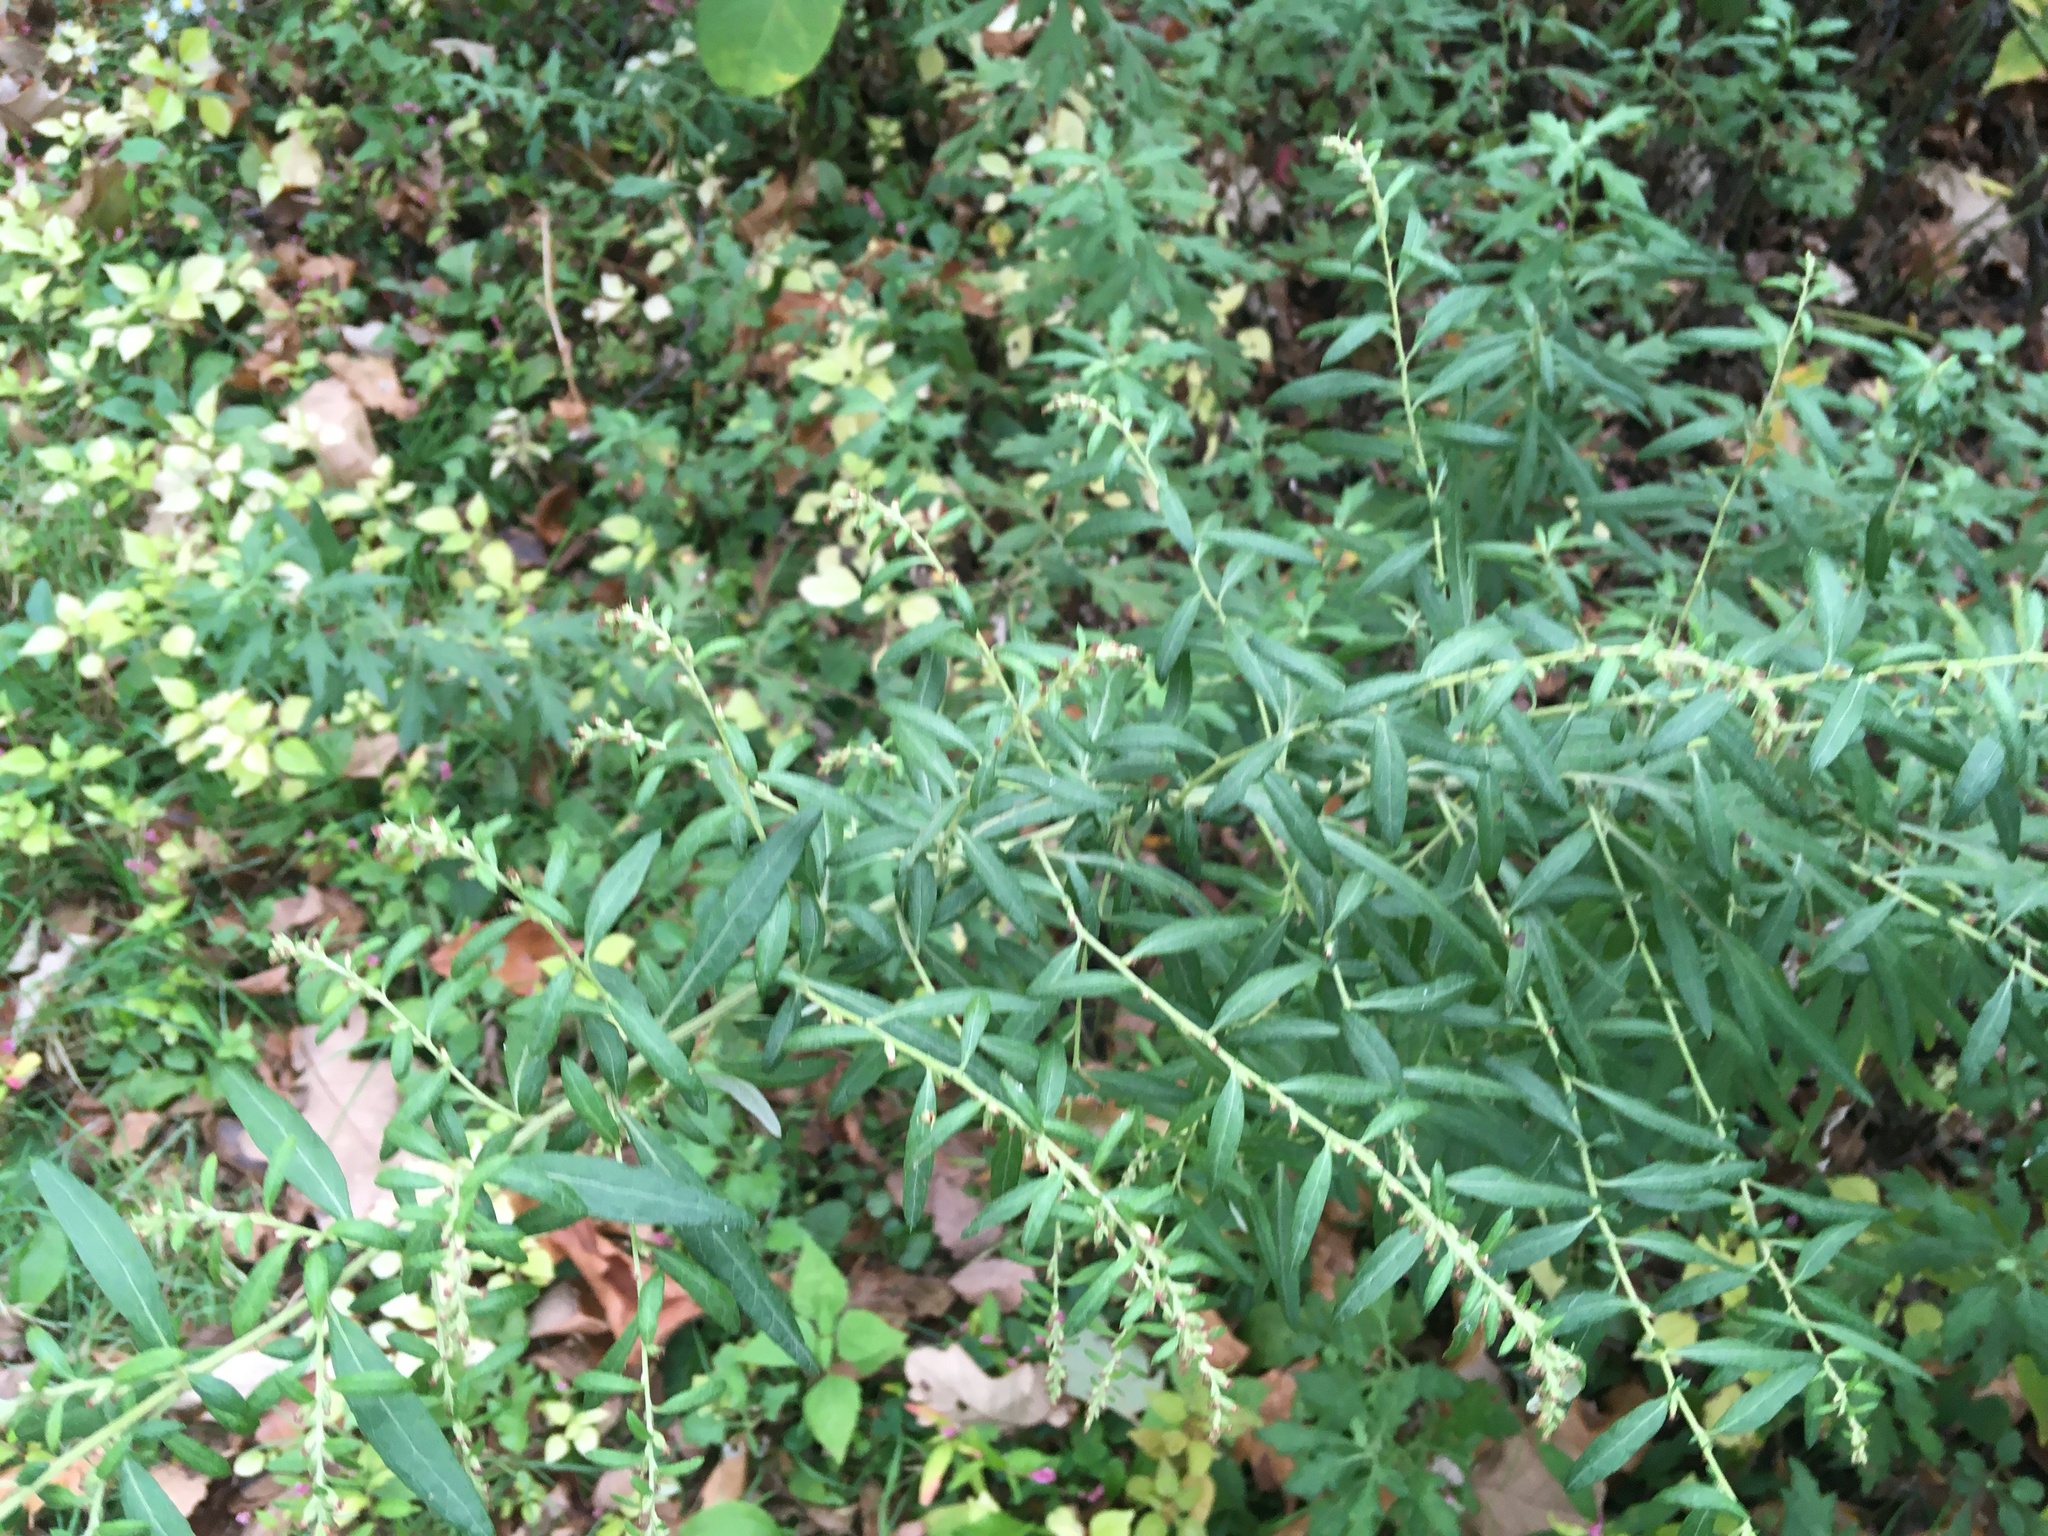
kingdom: Plantae
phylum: Tracheophyta
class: Magnoliopsida
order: Asterales
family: Asteraceae
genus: Artemisia
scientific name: Artemisia vulgaris
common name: Mugwort
